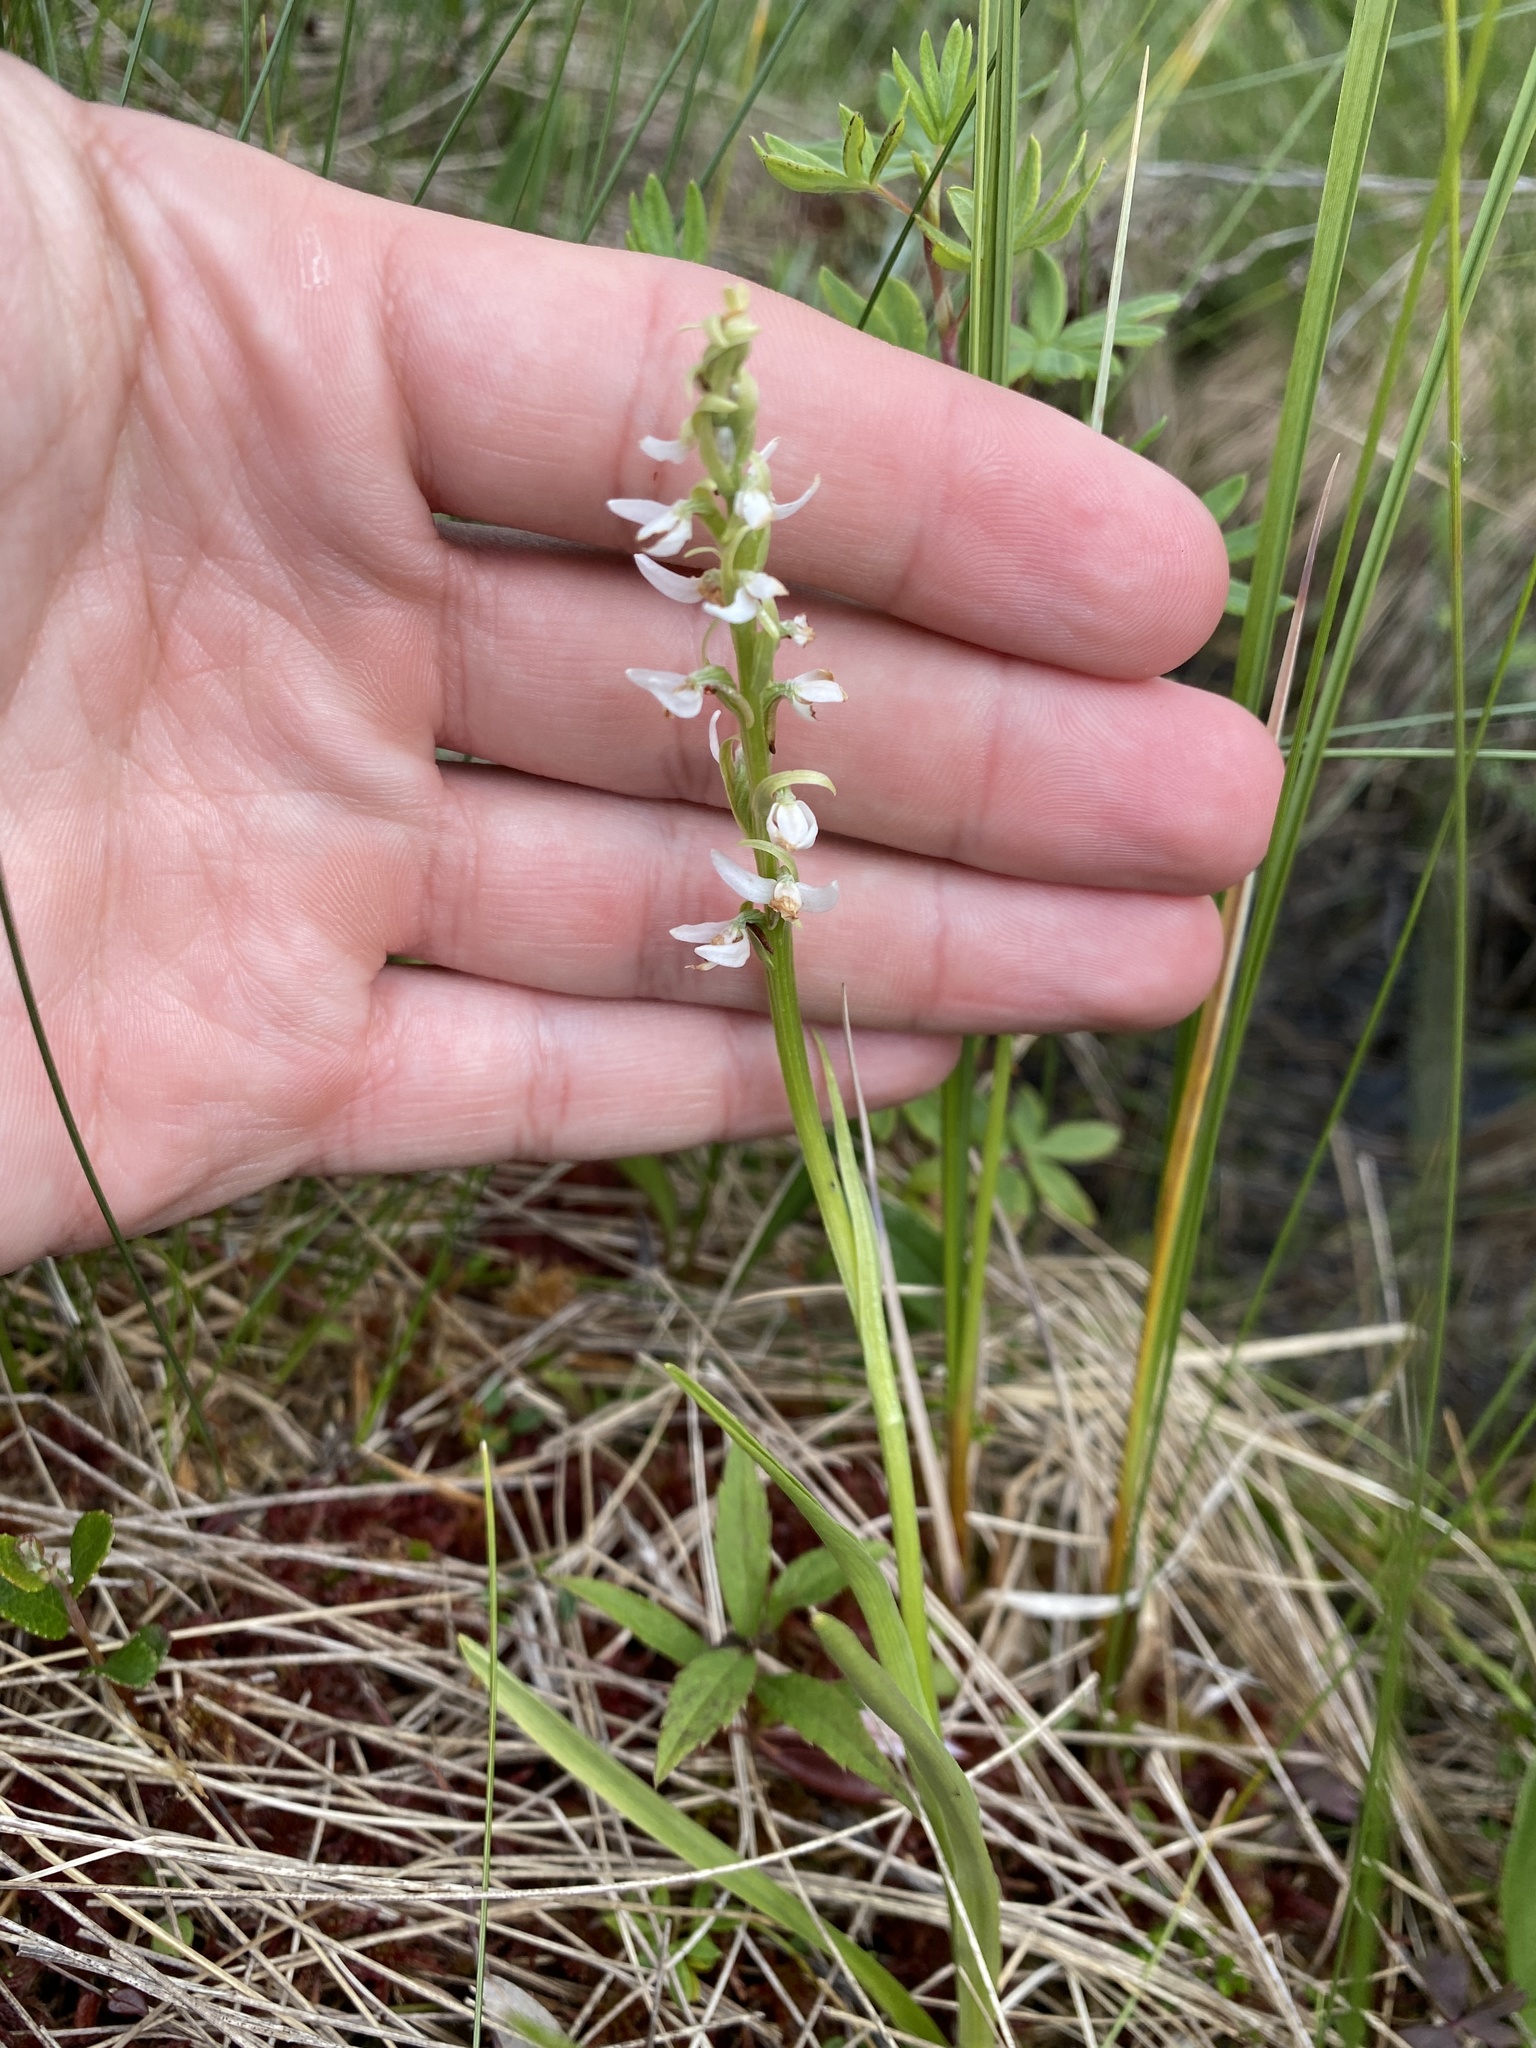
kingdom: Plantae
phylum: Tracheophyta
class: Liliopsida
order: Asparagales
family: Orchidaceae
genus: Platanthera
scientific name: Platanthera dilatata
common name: Bog candles
